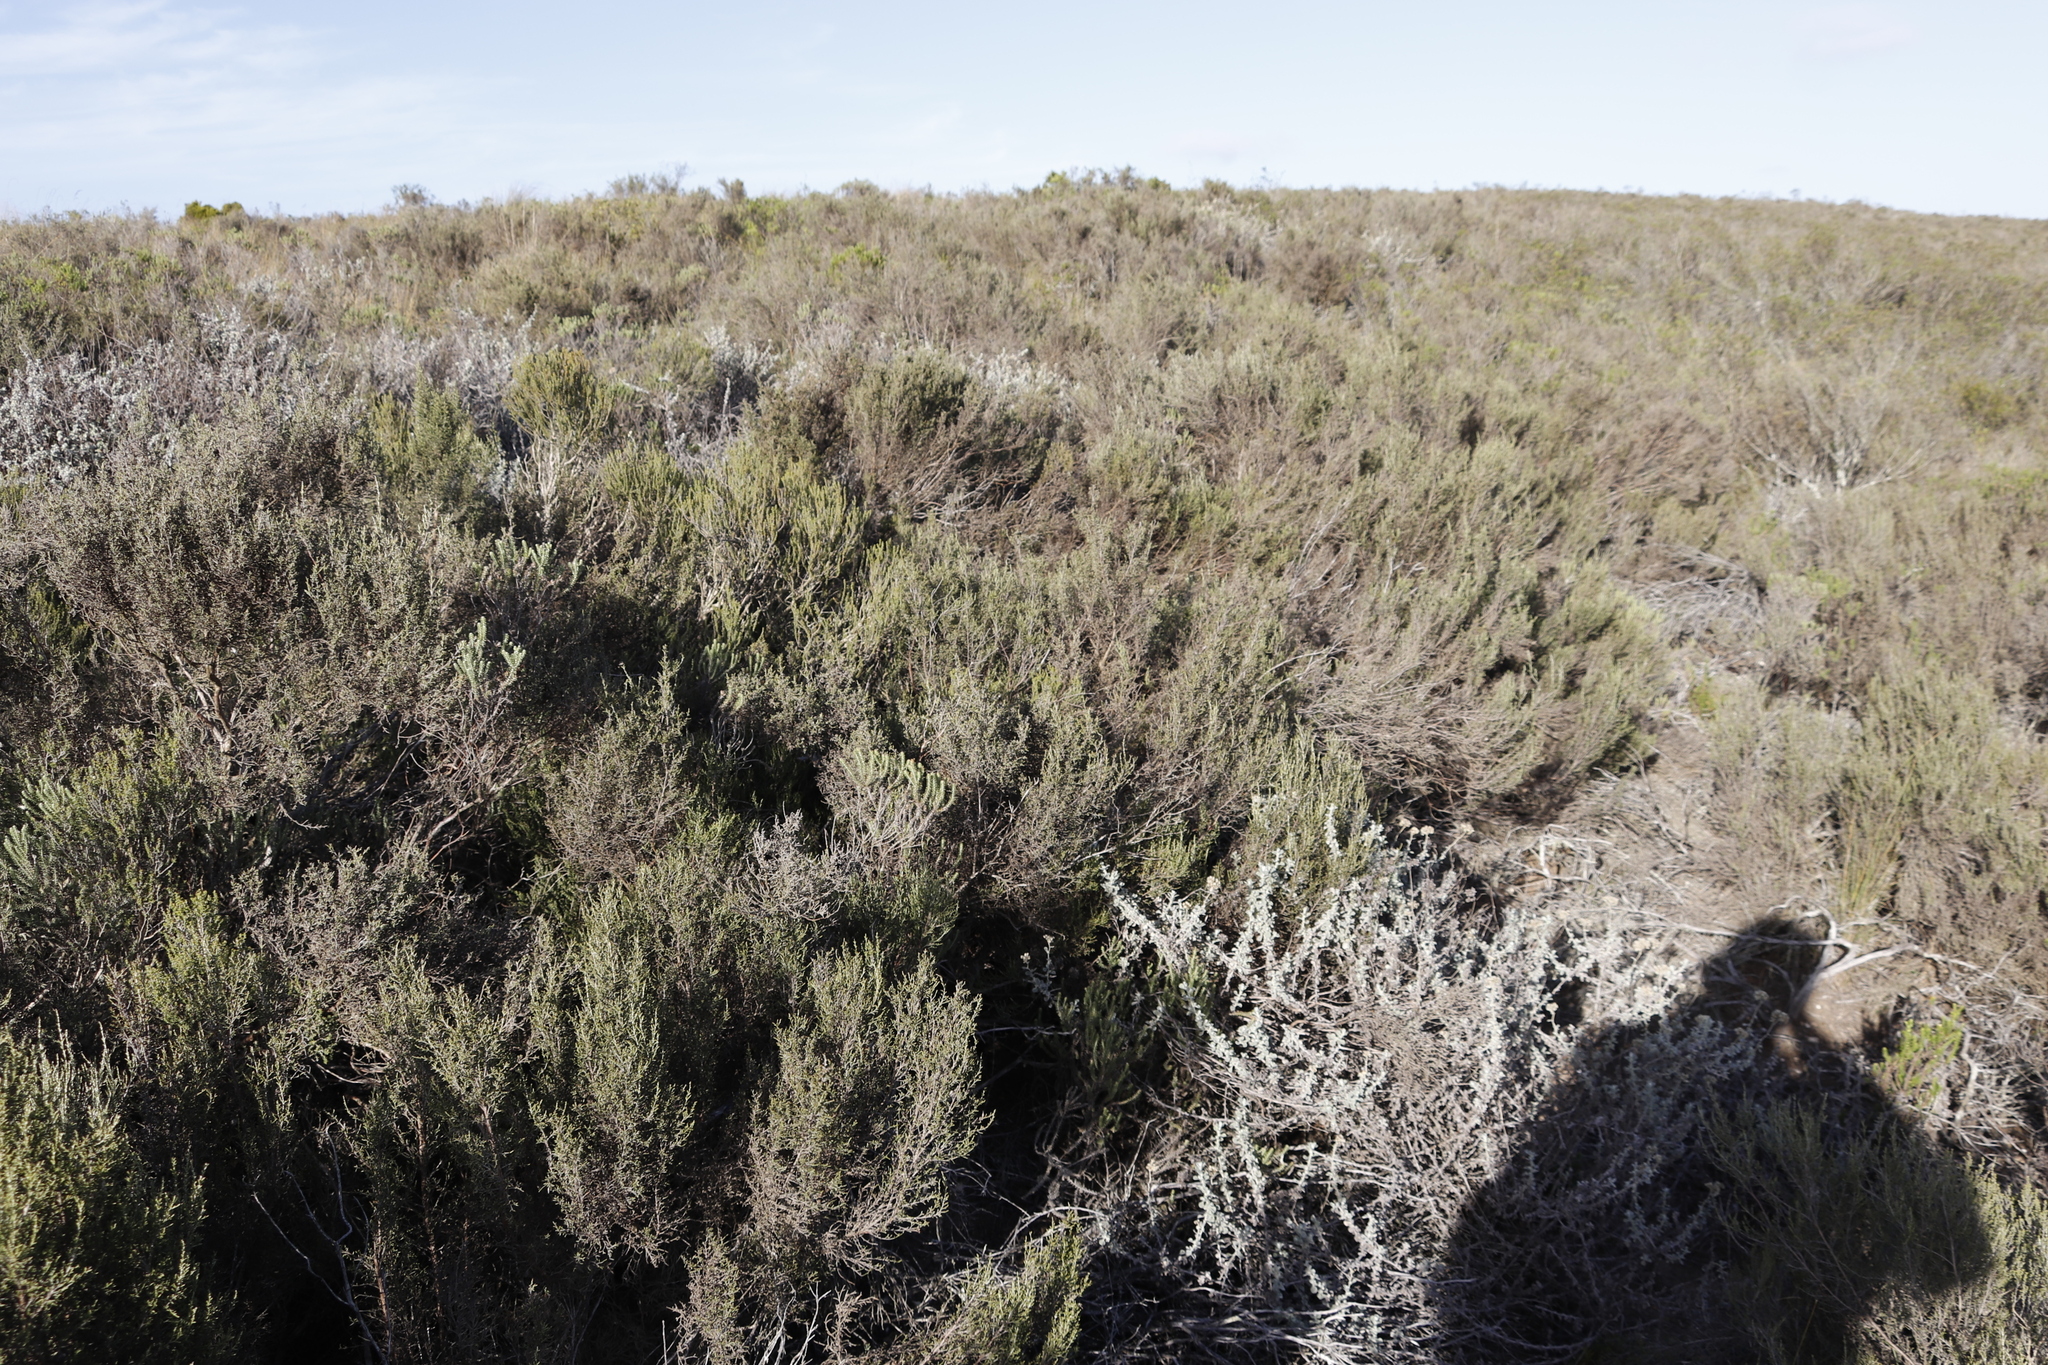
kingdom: Plantae
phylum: Tracheophyta
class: Magnoliopsida
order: Asterales
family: Asteraceae
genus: Dicerothamnus
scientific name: Dicerothamnus rhinocerotis
